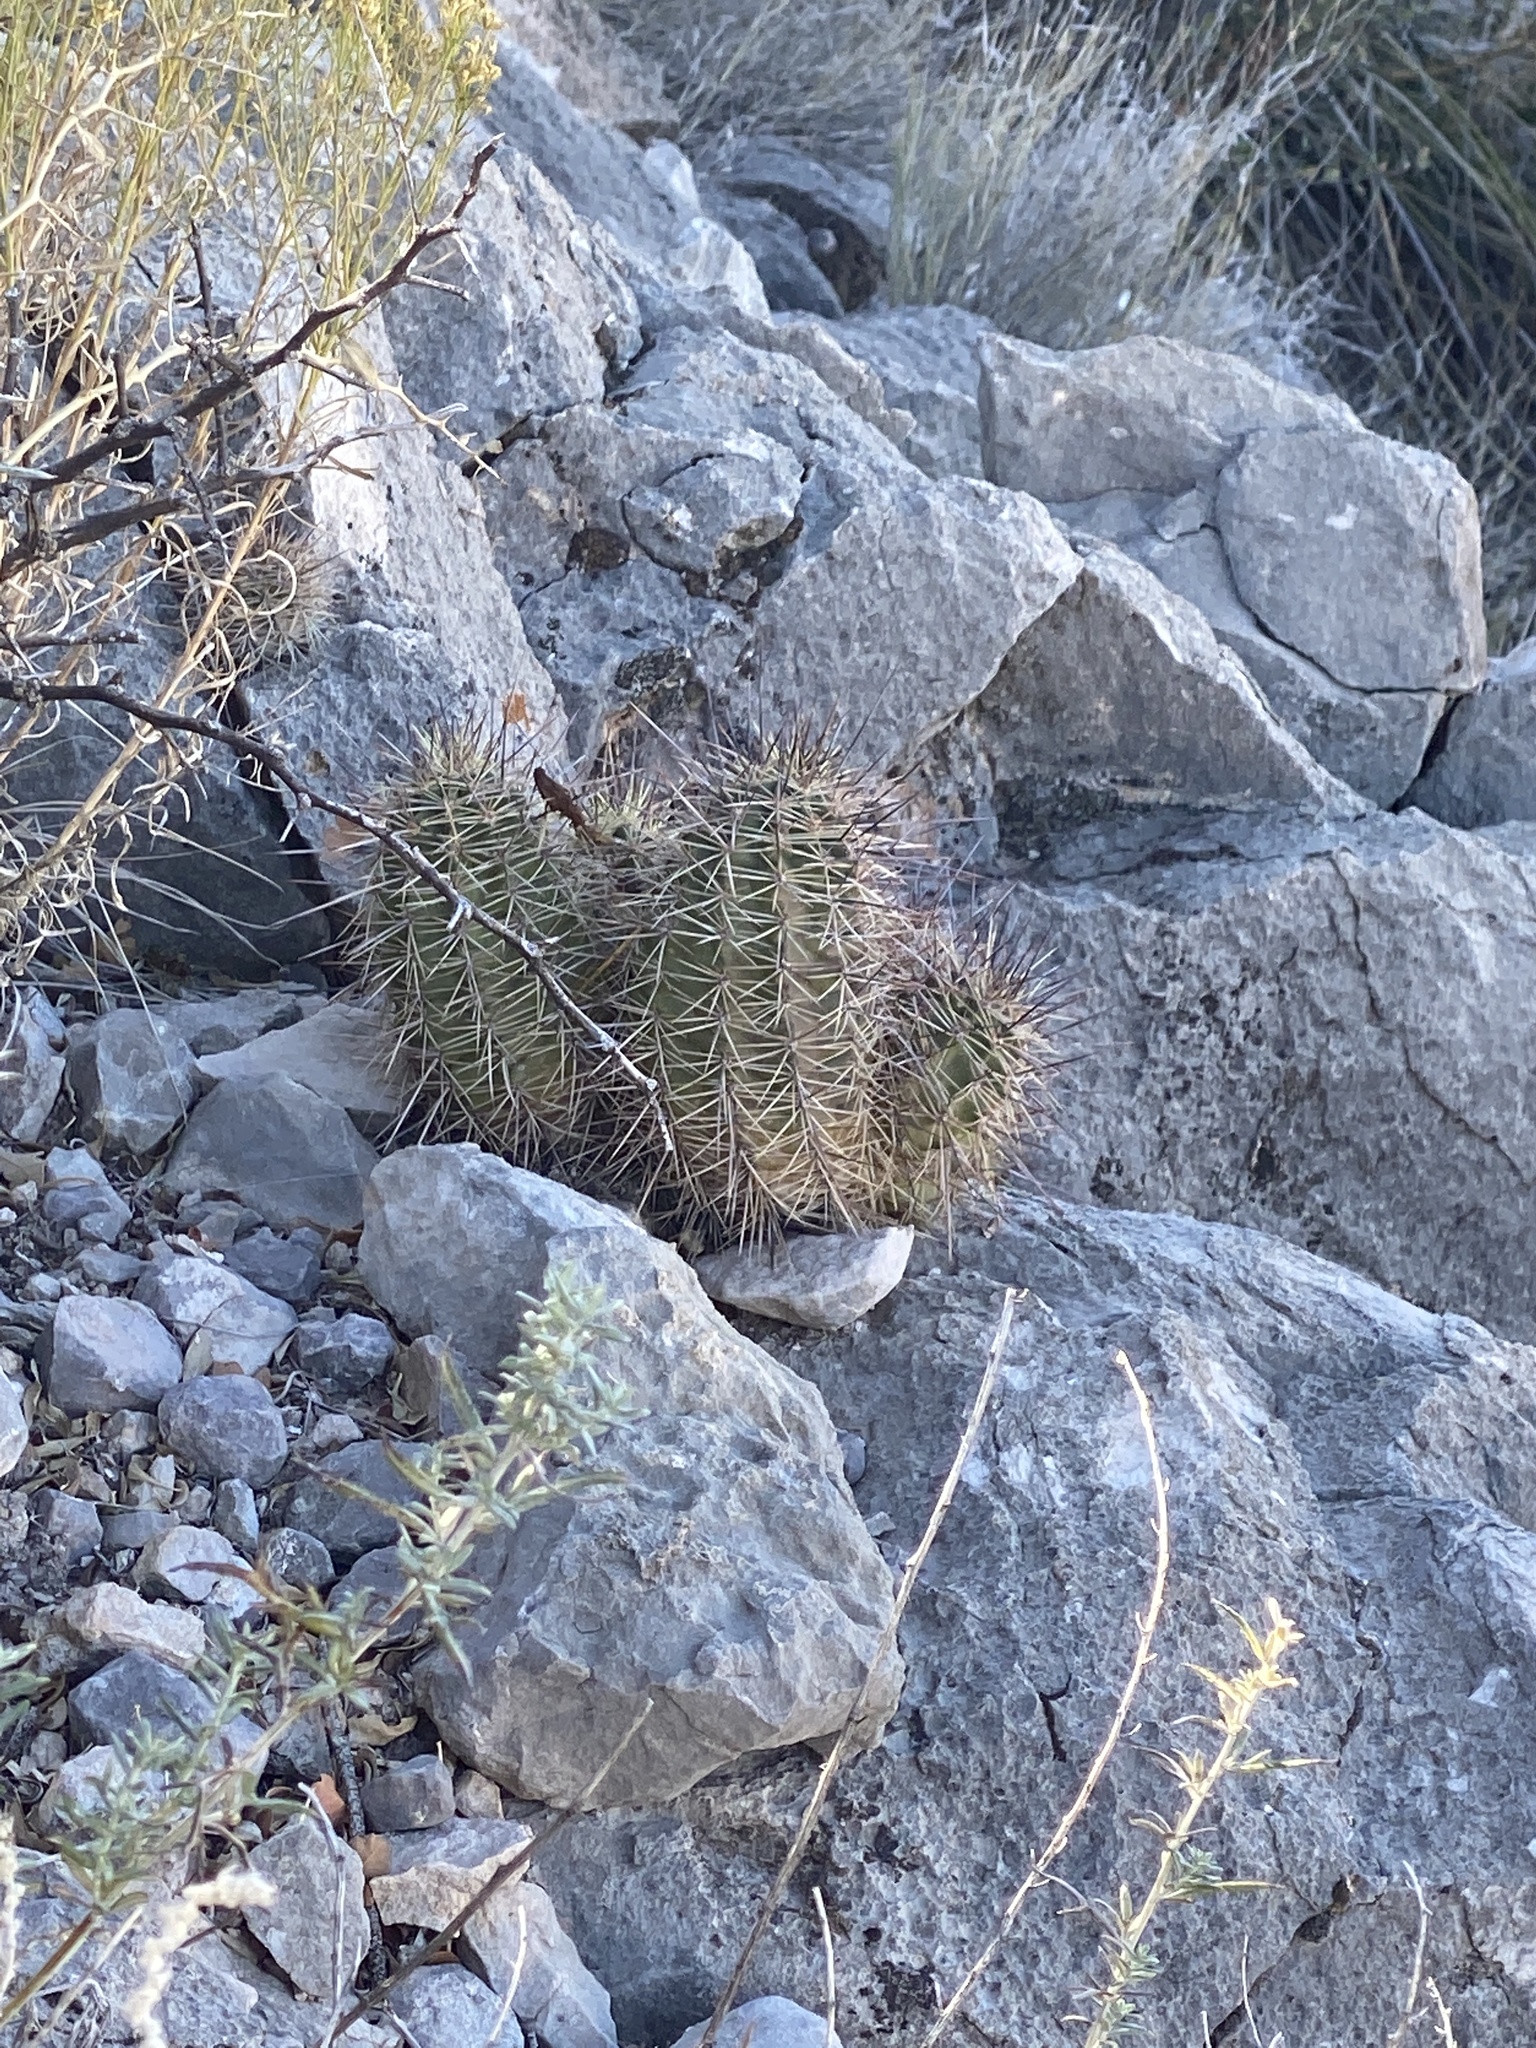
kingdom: Plantae
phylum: Tracheophyta
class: Magnoliopsida
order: Caryophyllales
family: Cactaceae
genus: Echinocereus
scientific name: Echinocereus coccineus
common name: Scarlet hedgehog cactus
